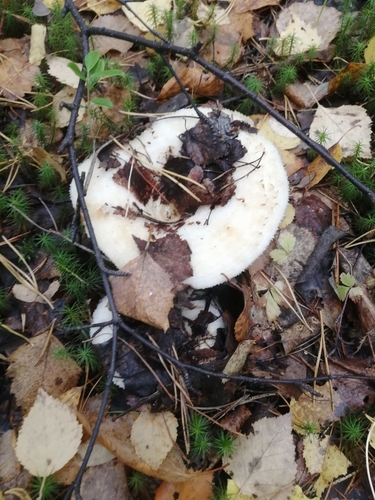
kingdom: Fungi
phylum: Basidiomycota
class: Agaricomycetes
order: Russulales
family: Russulaceae
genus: Lactarius
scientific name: Lactarius resimus
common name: Rollrim milkcap
